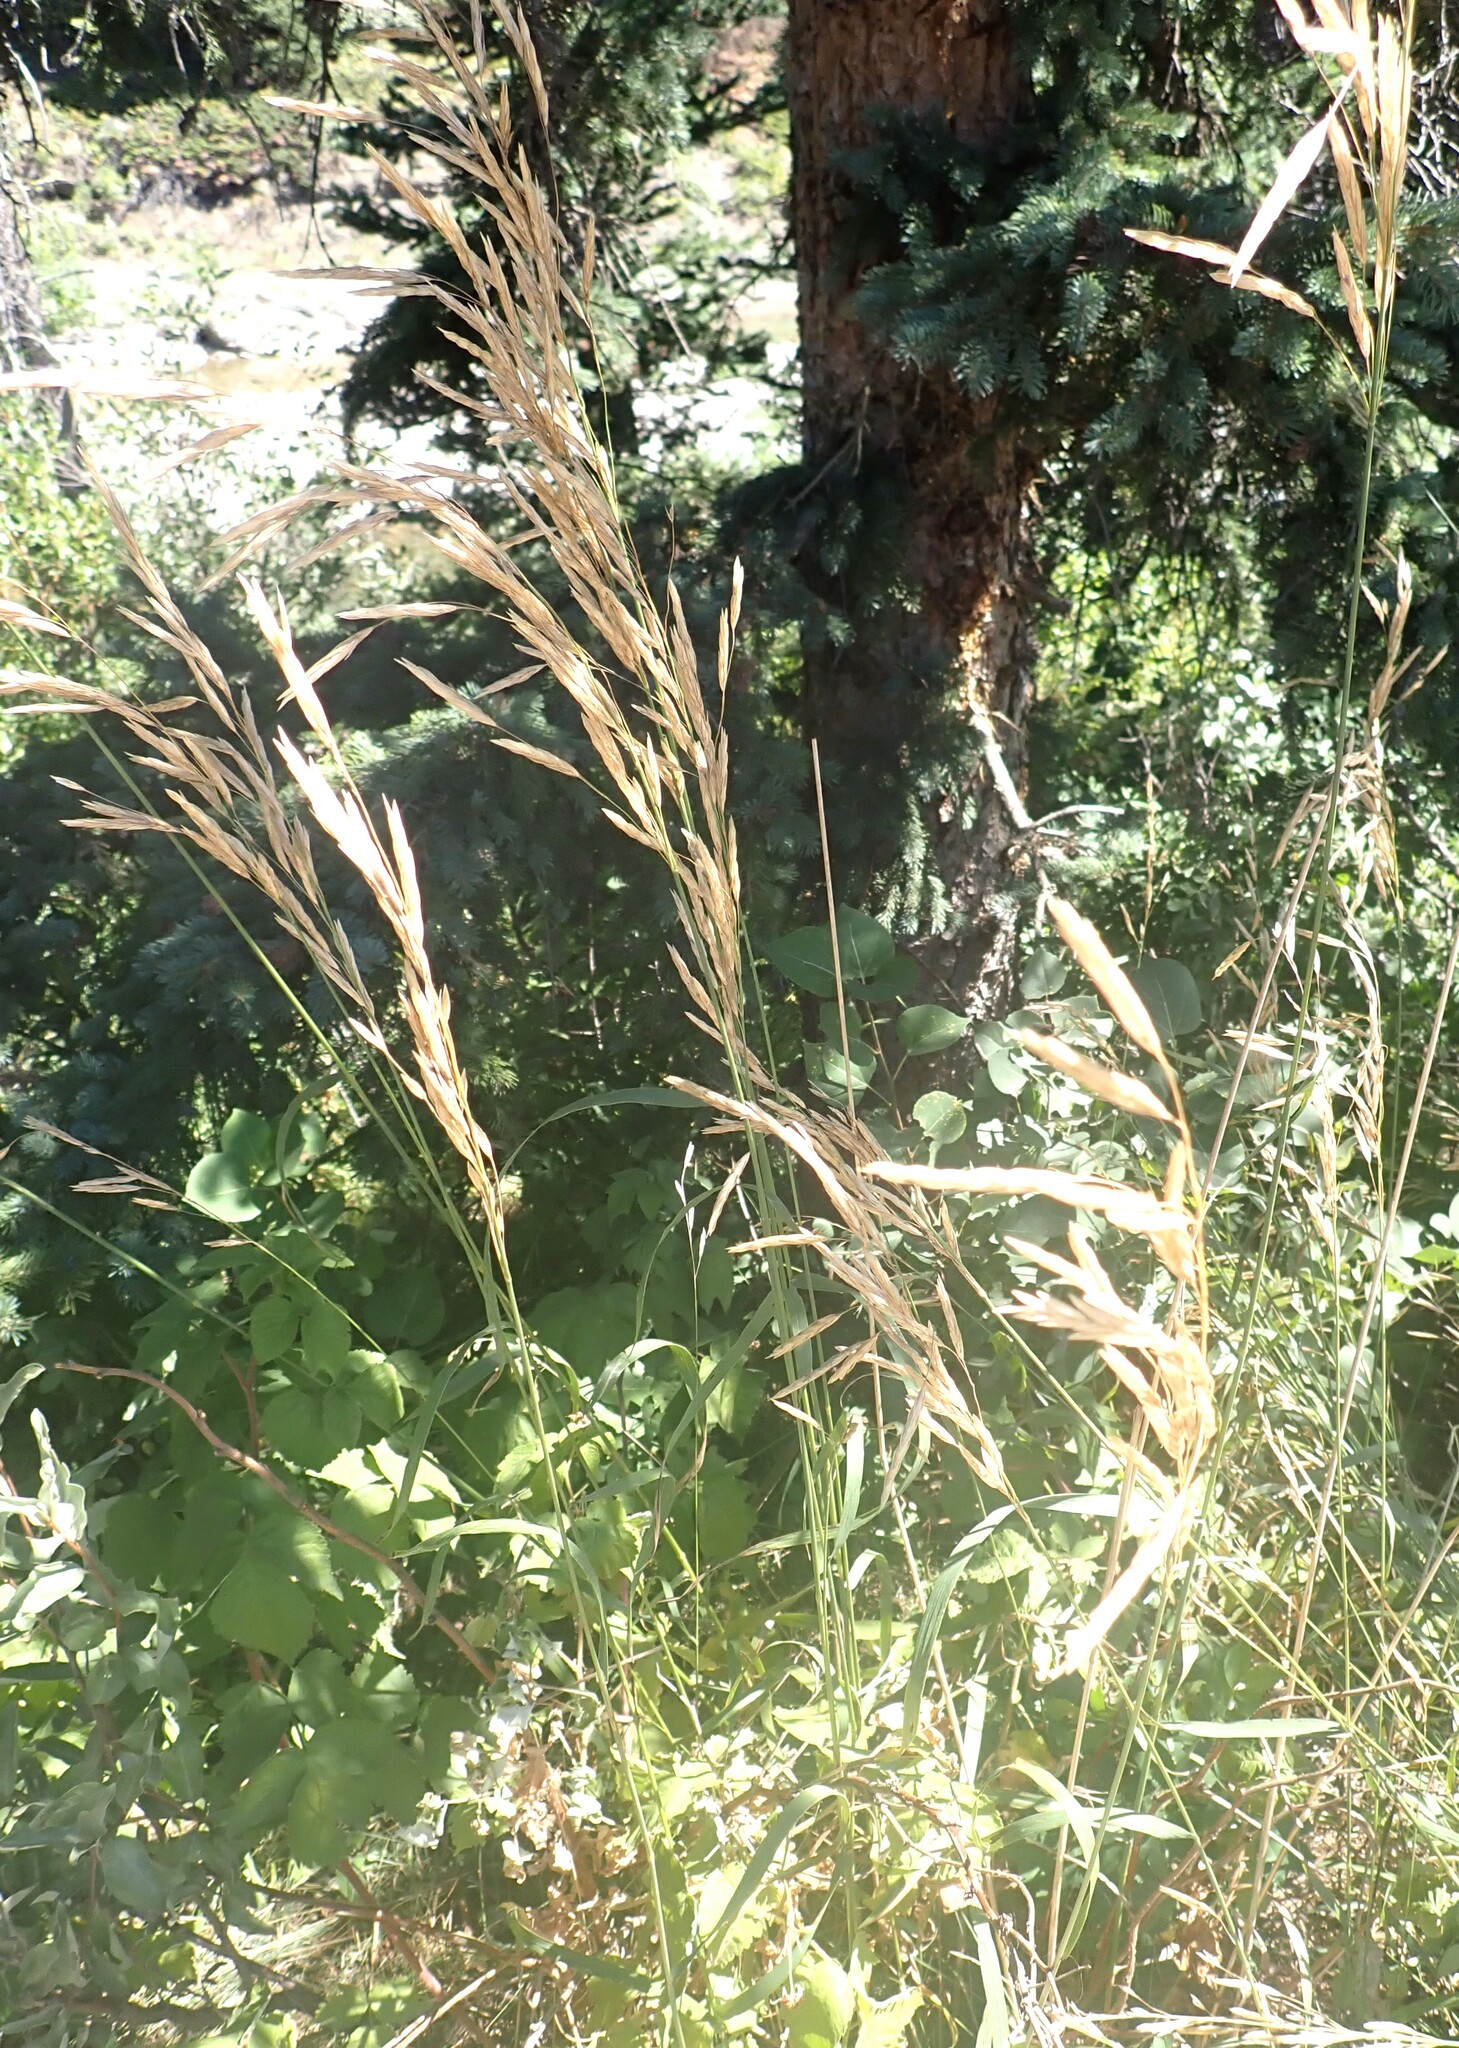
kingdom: Plantae
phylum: Tracheophyta
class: Liliopsida
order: Poales
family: Poaceae
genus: Bromus
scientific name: Bromus inermis
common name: Smooth brome
